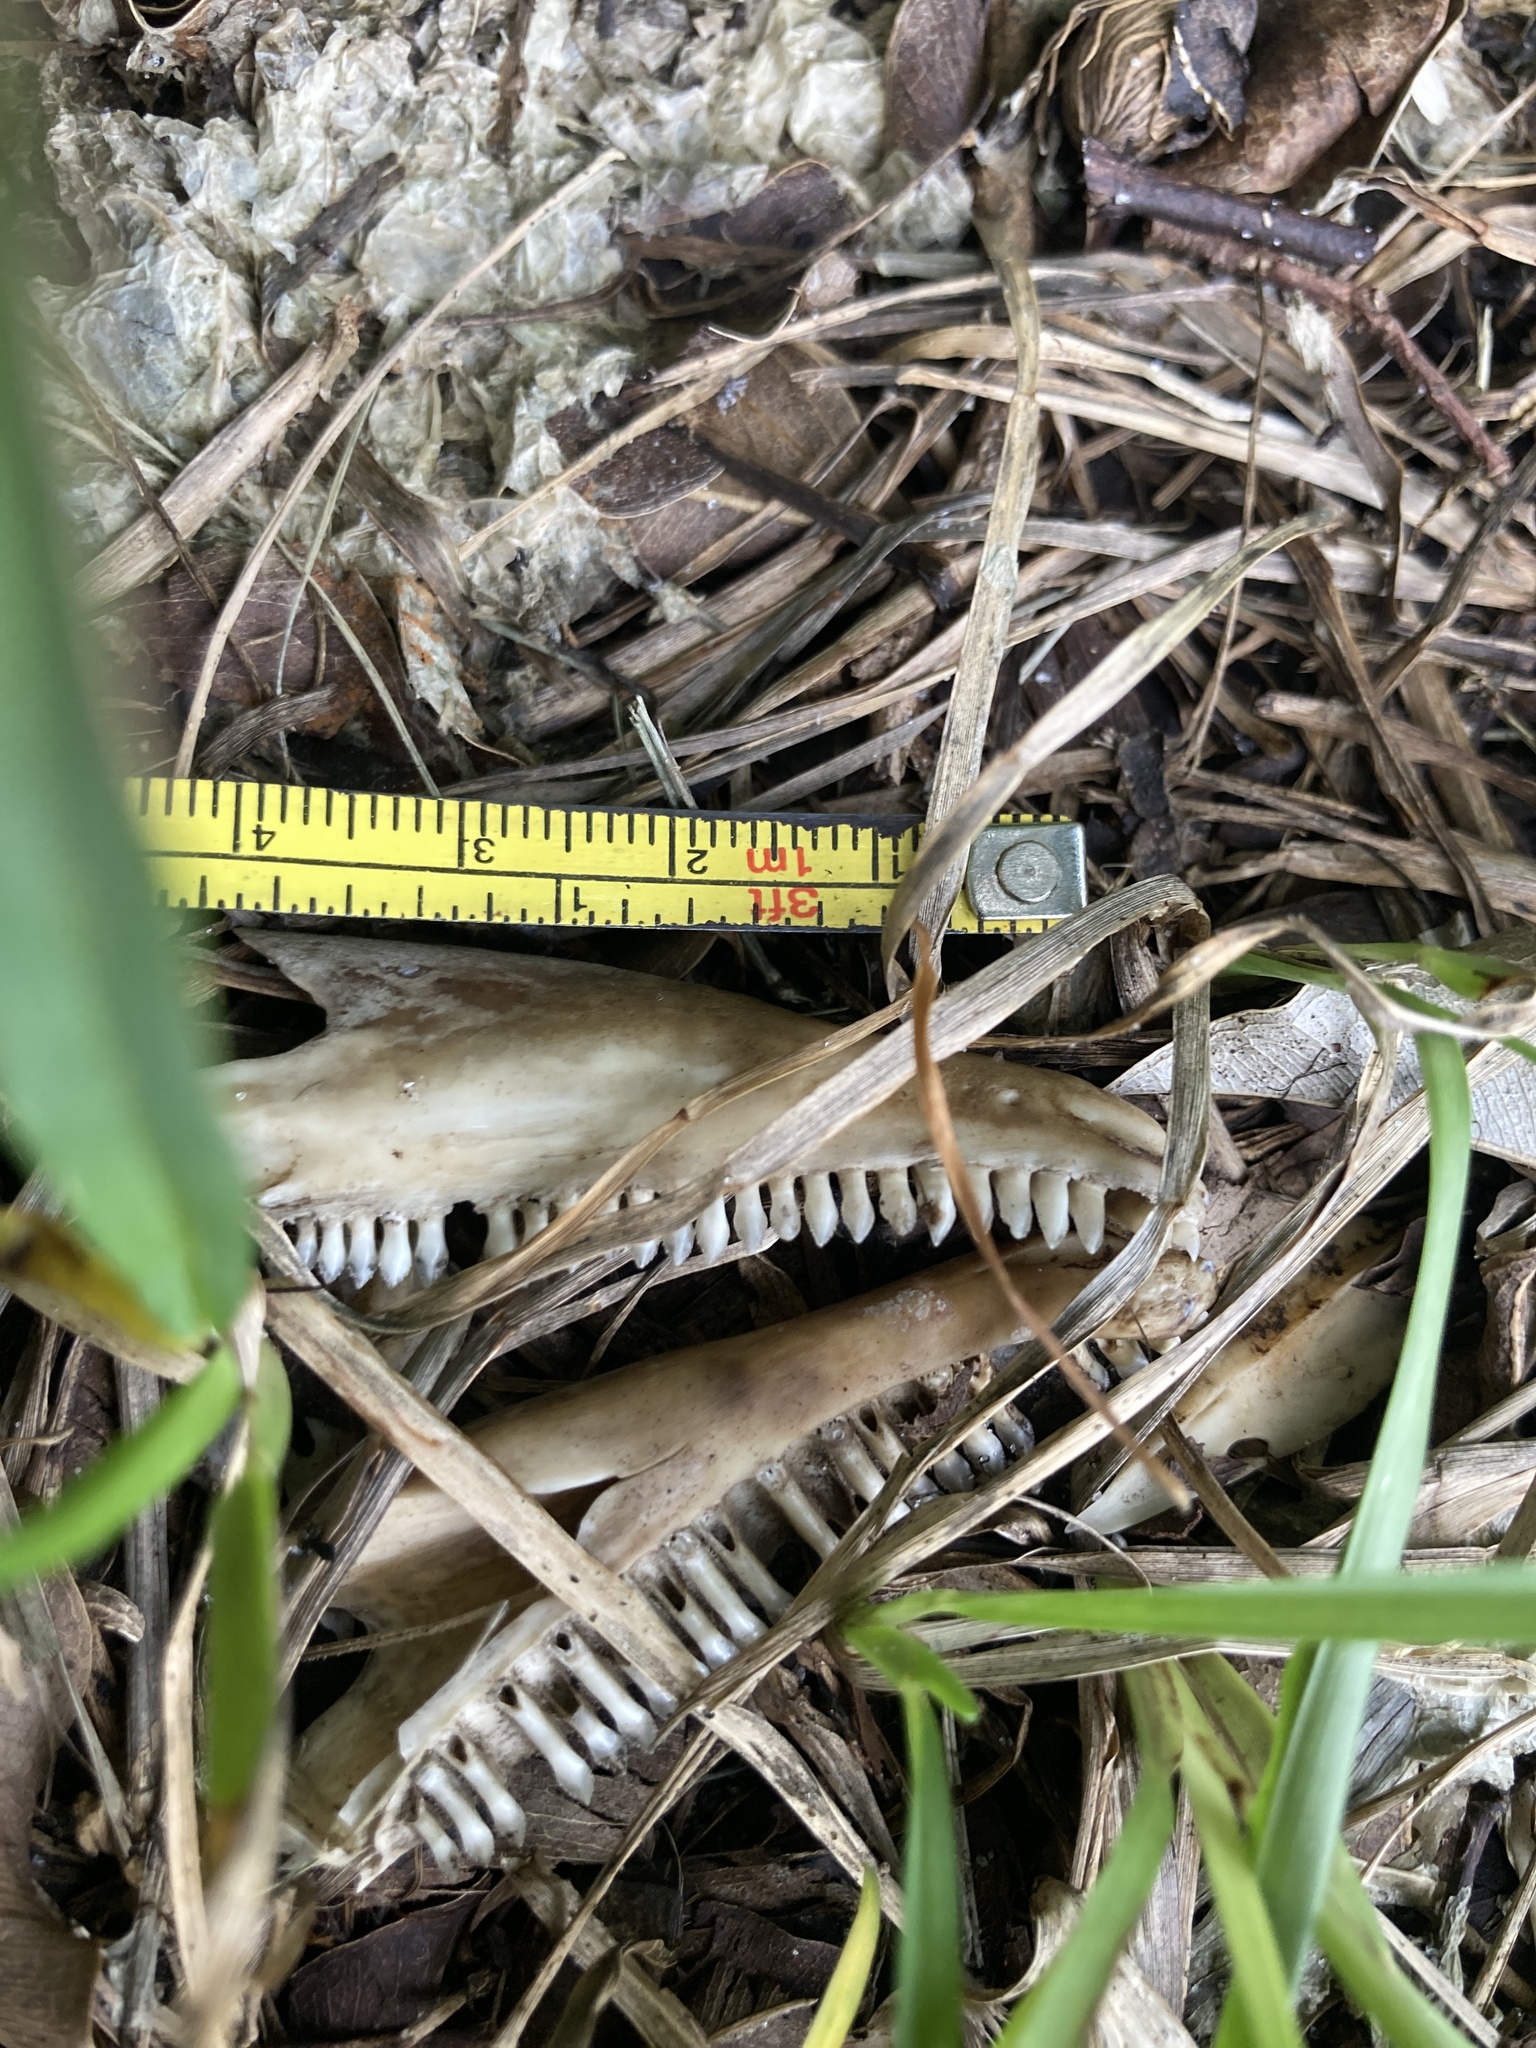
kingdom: Animalia
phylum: Chordata
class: Squamata
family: Iguanidae
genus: Iguana
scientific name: Iguana iguana
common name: Green iguana
